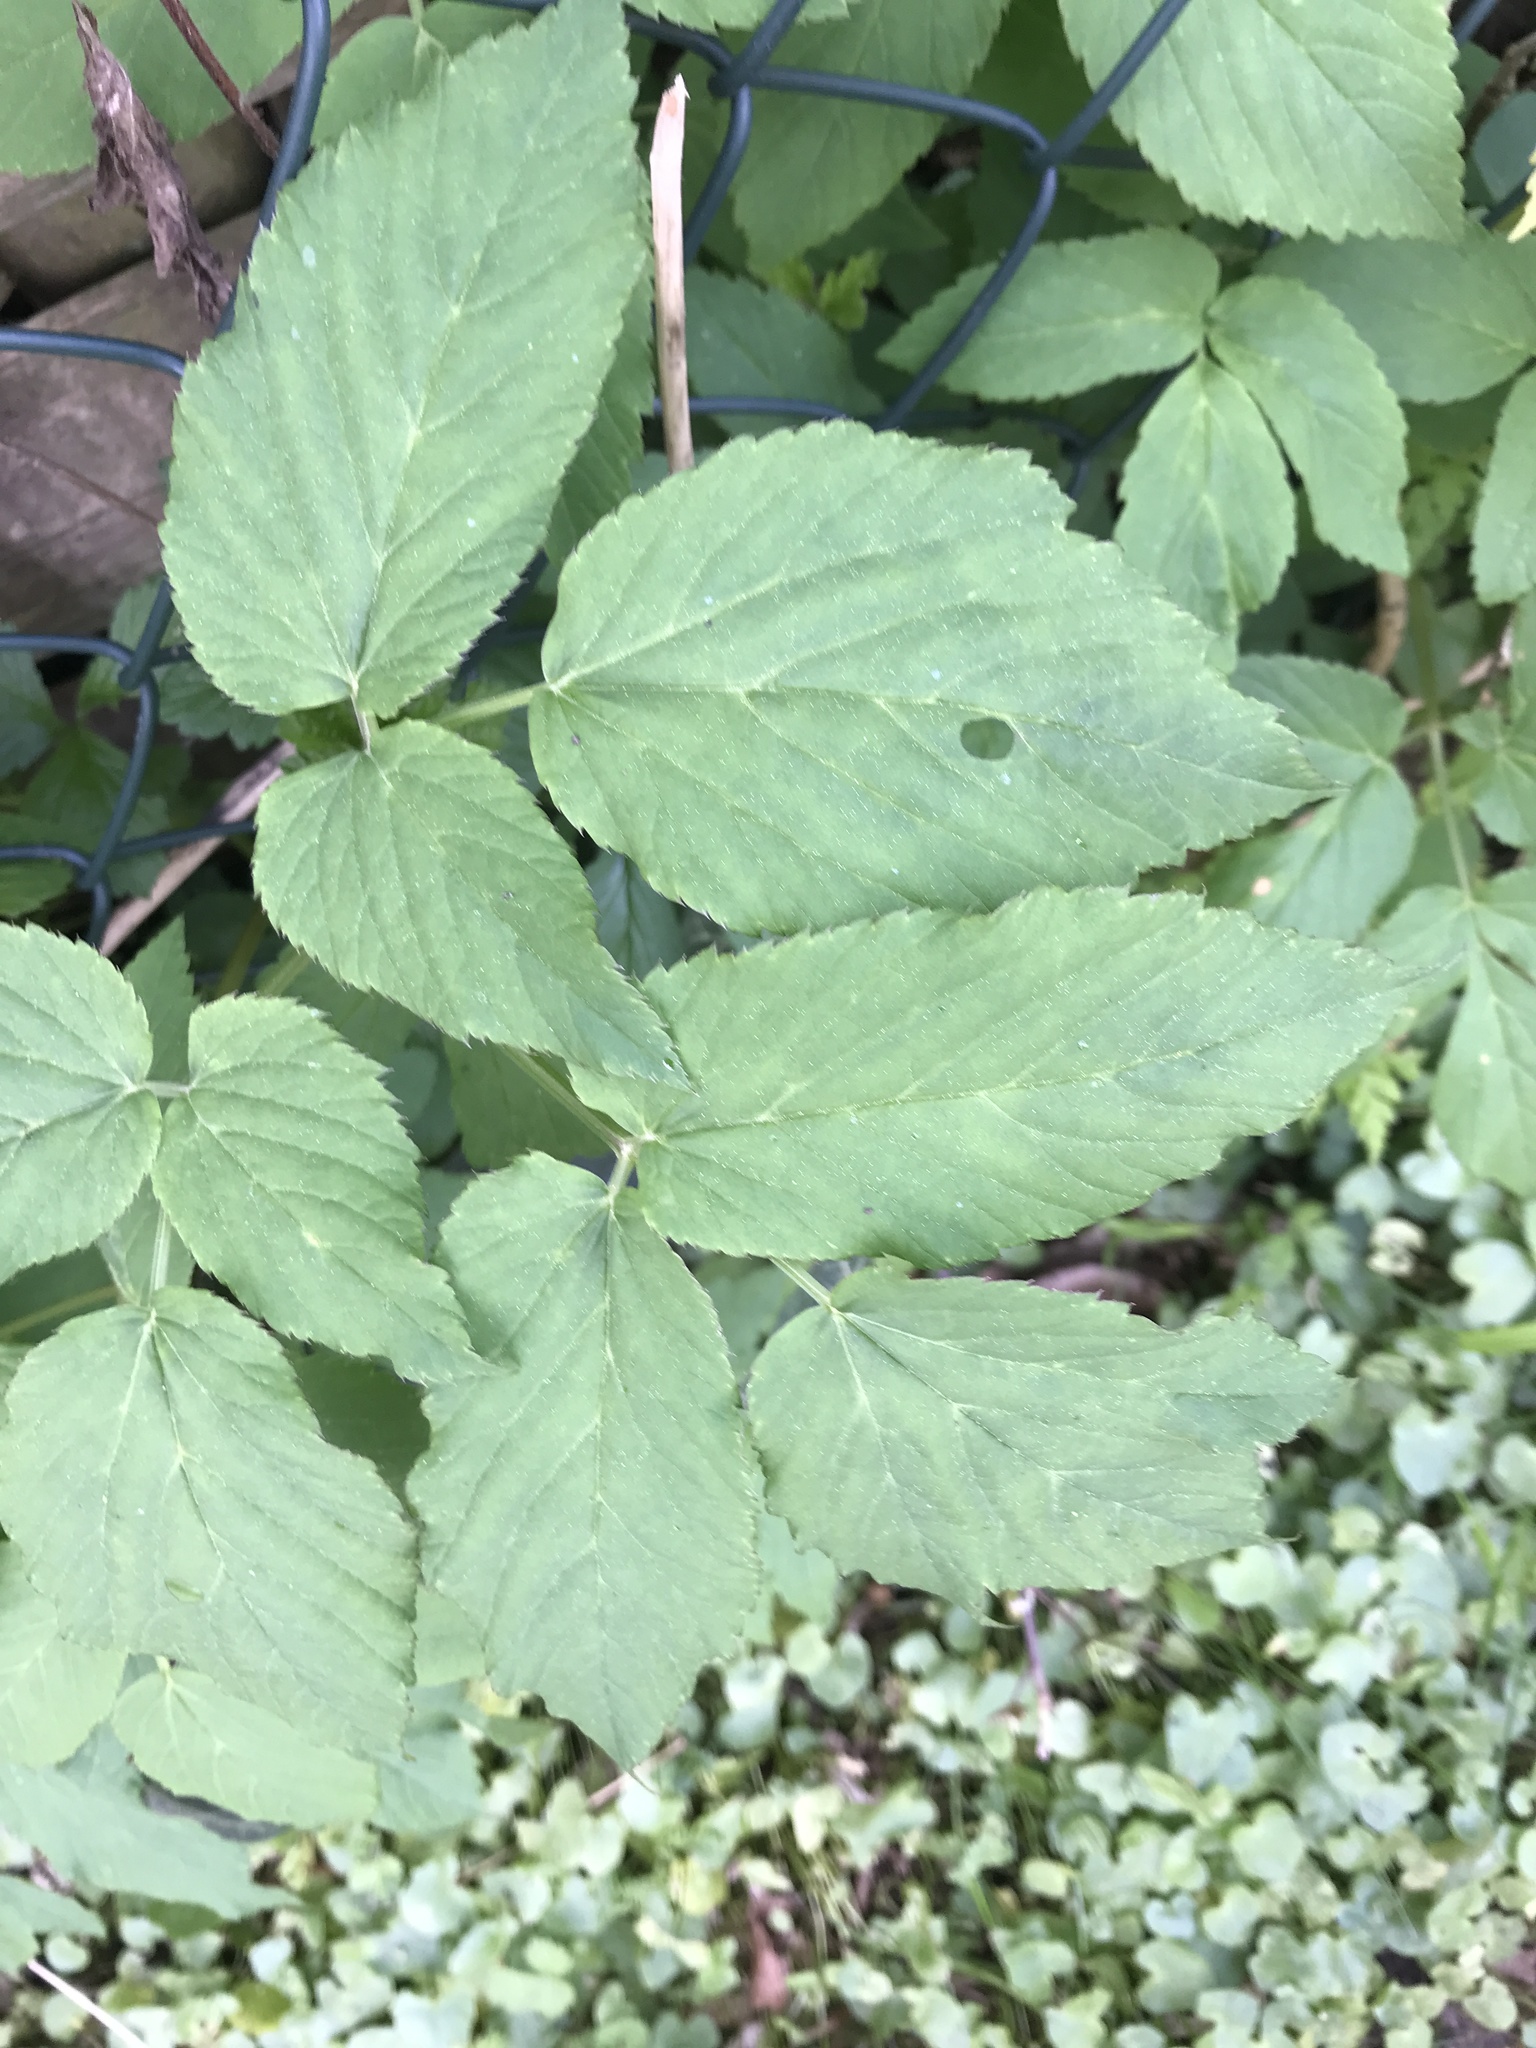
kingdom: Plantae
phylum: Tracheophyta
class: Magnoliopsida
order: Apiales
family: Apiaceae
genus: Aegopodium
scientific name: Aegopodium podagraria
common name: Ground-elder
